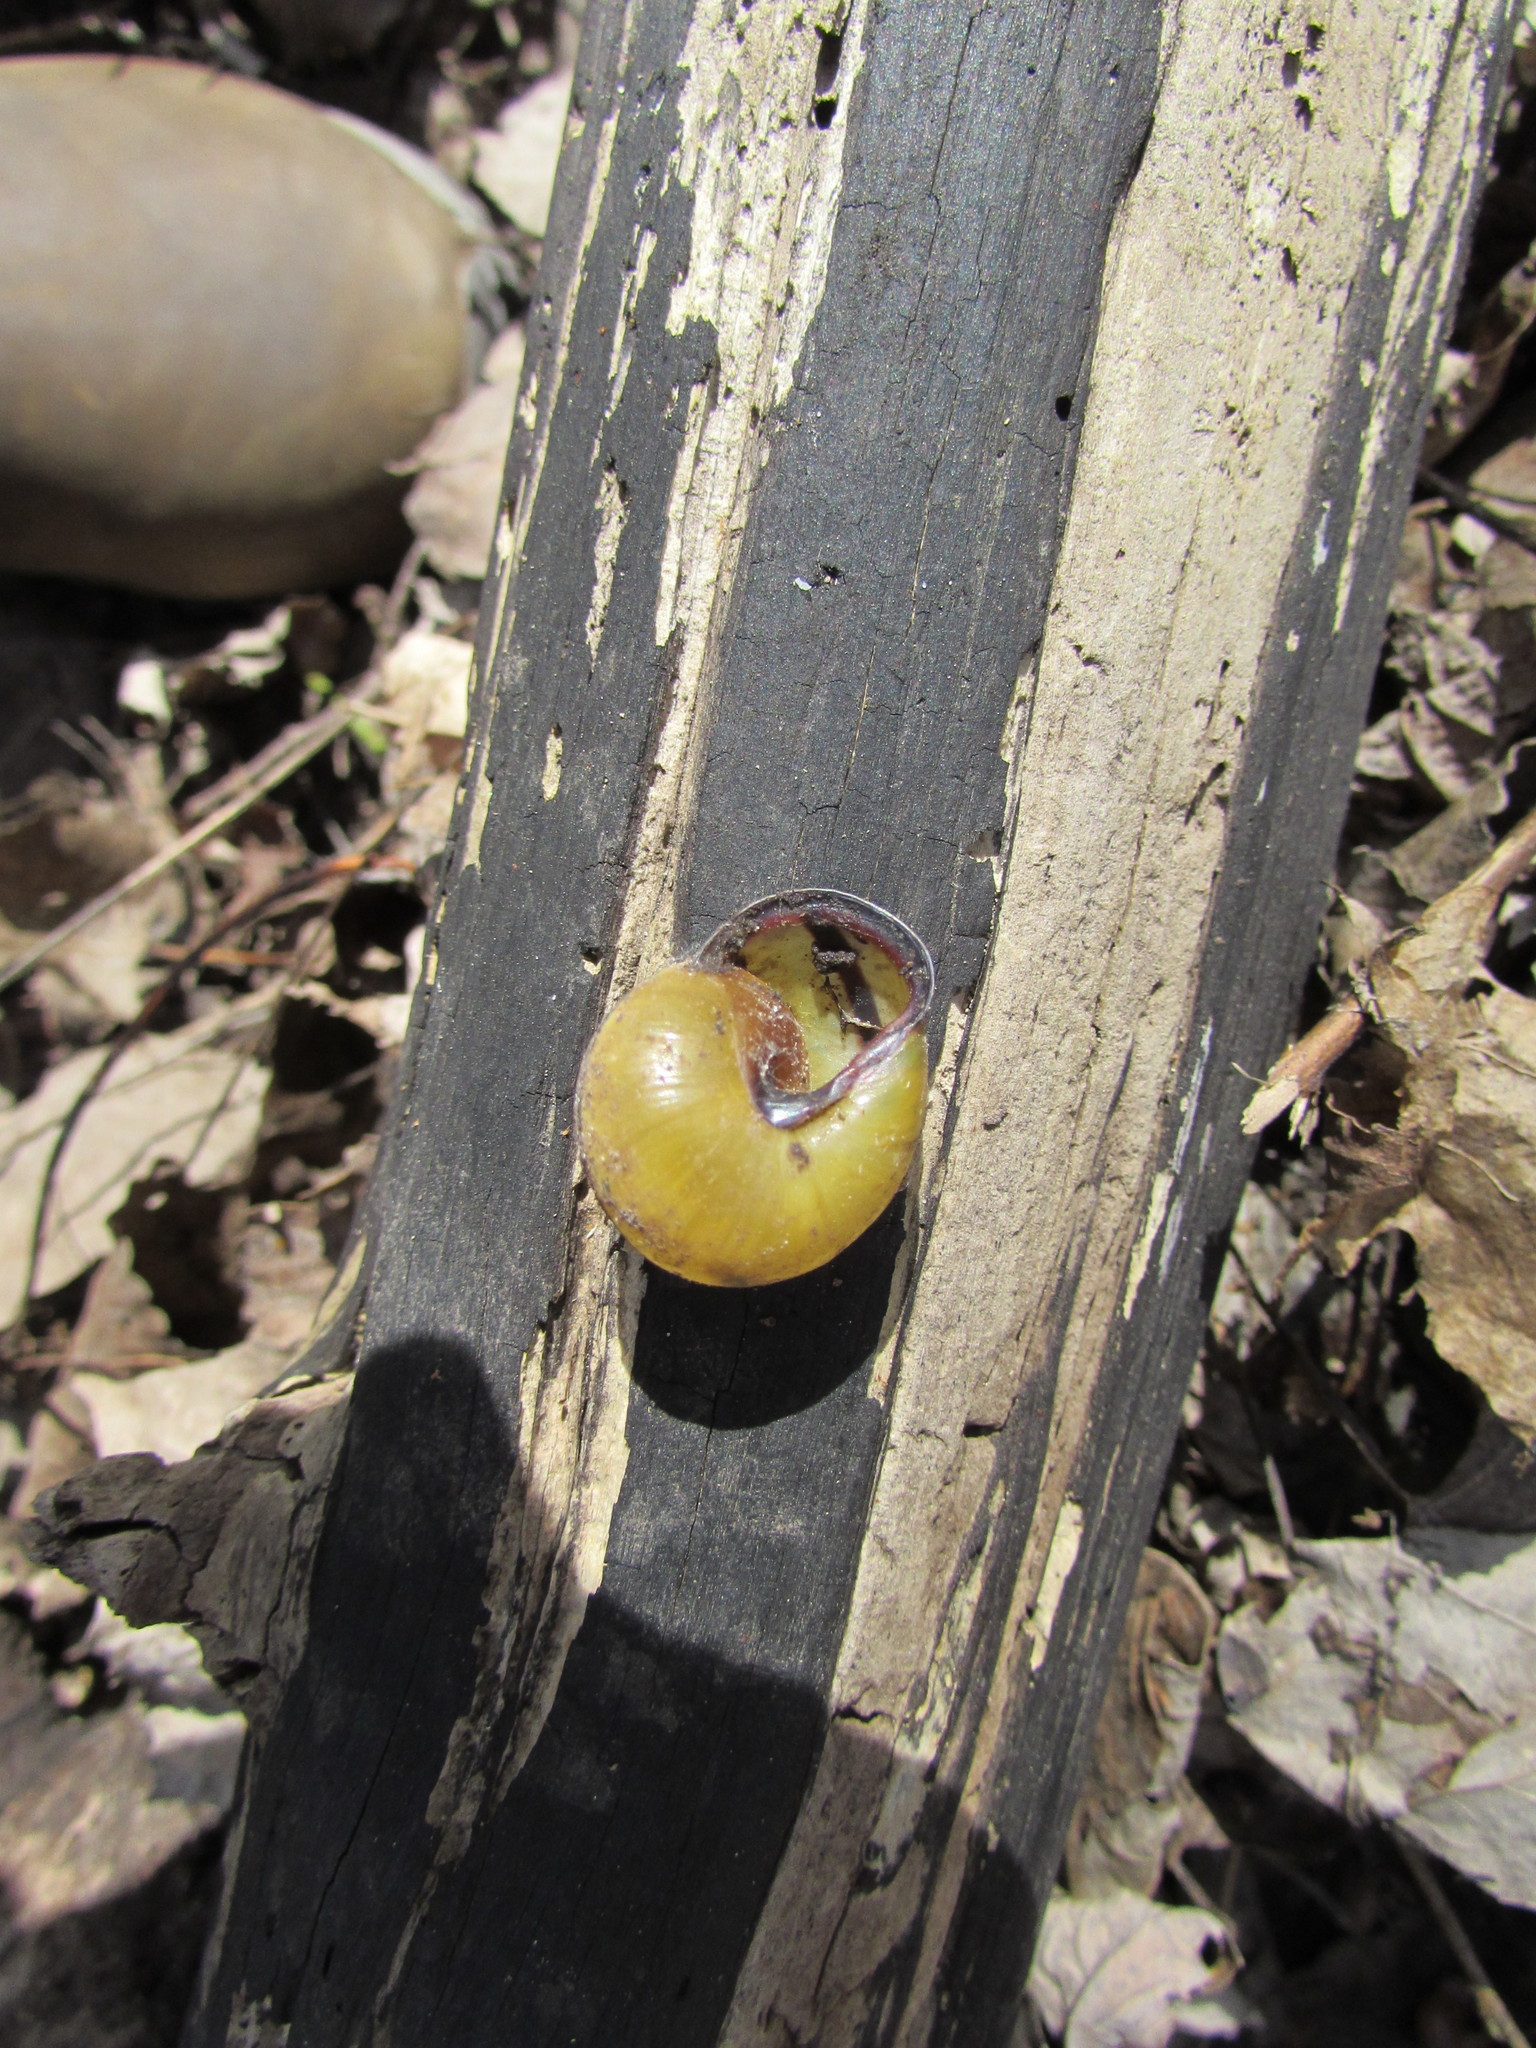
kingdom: Animalia
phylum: Mollusca
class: Gastropoda
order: Stylommatophora
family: Helicidae
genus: Cepaea
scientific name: Cepaea nemoralis
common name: Grovesnail
